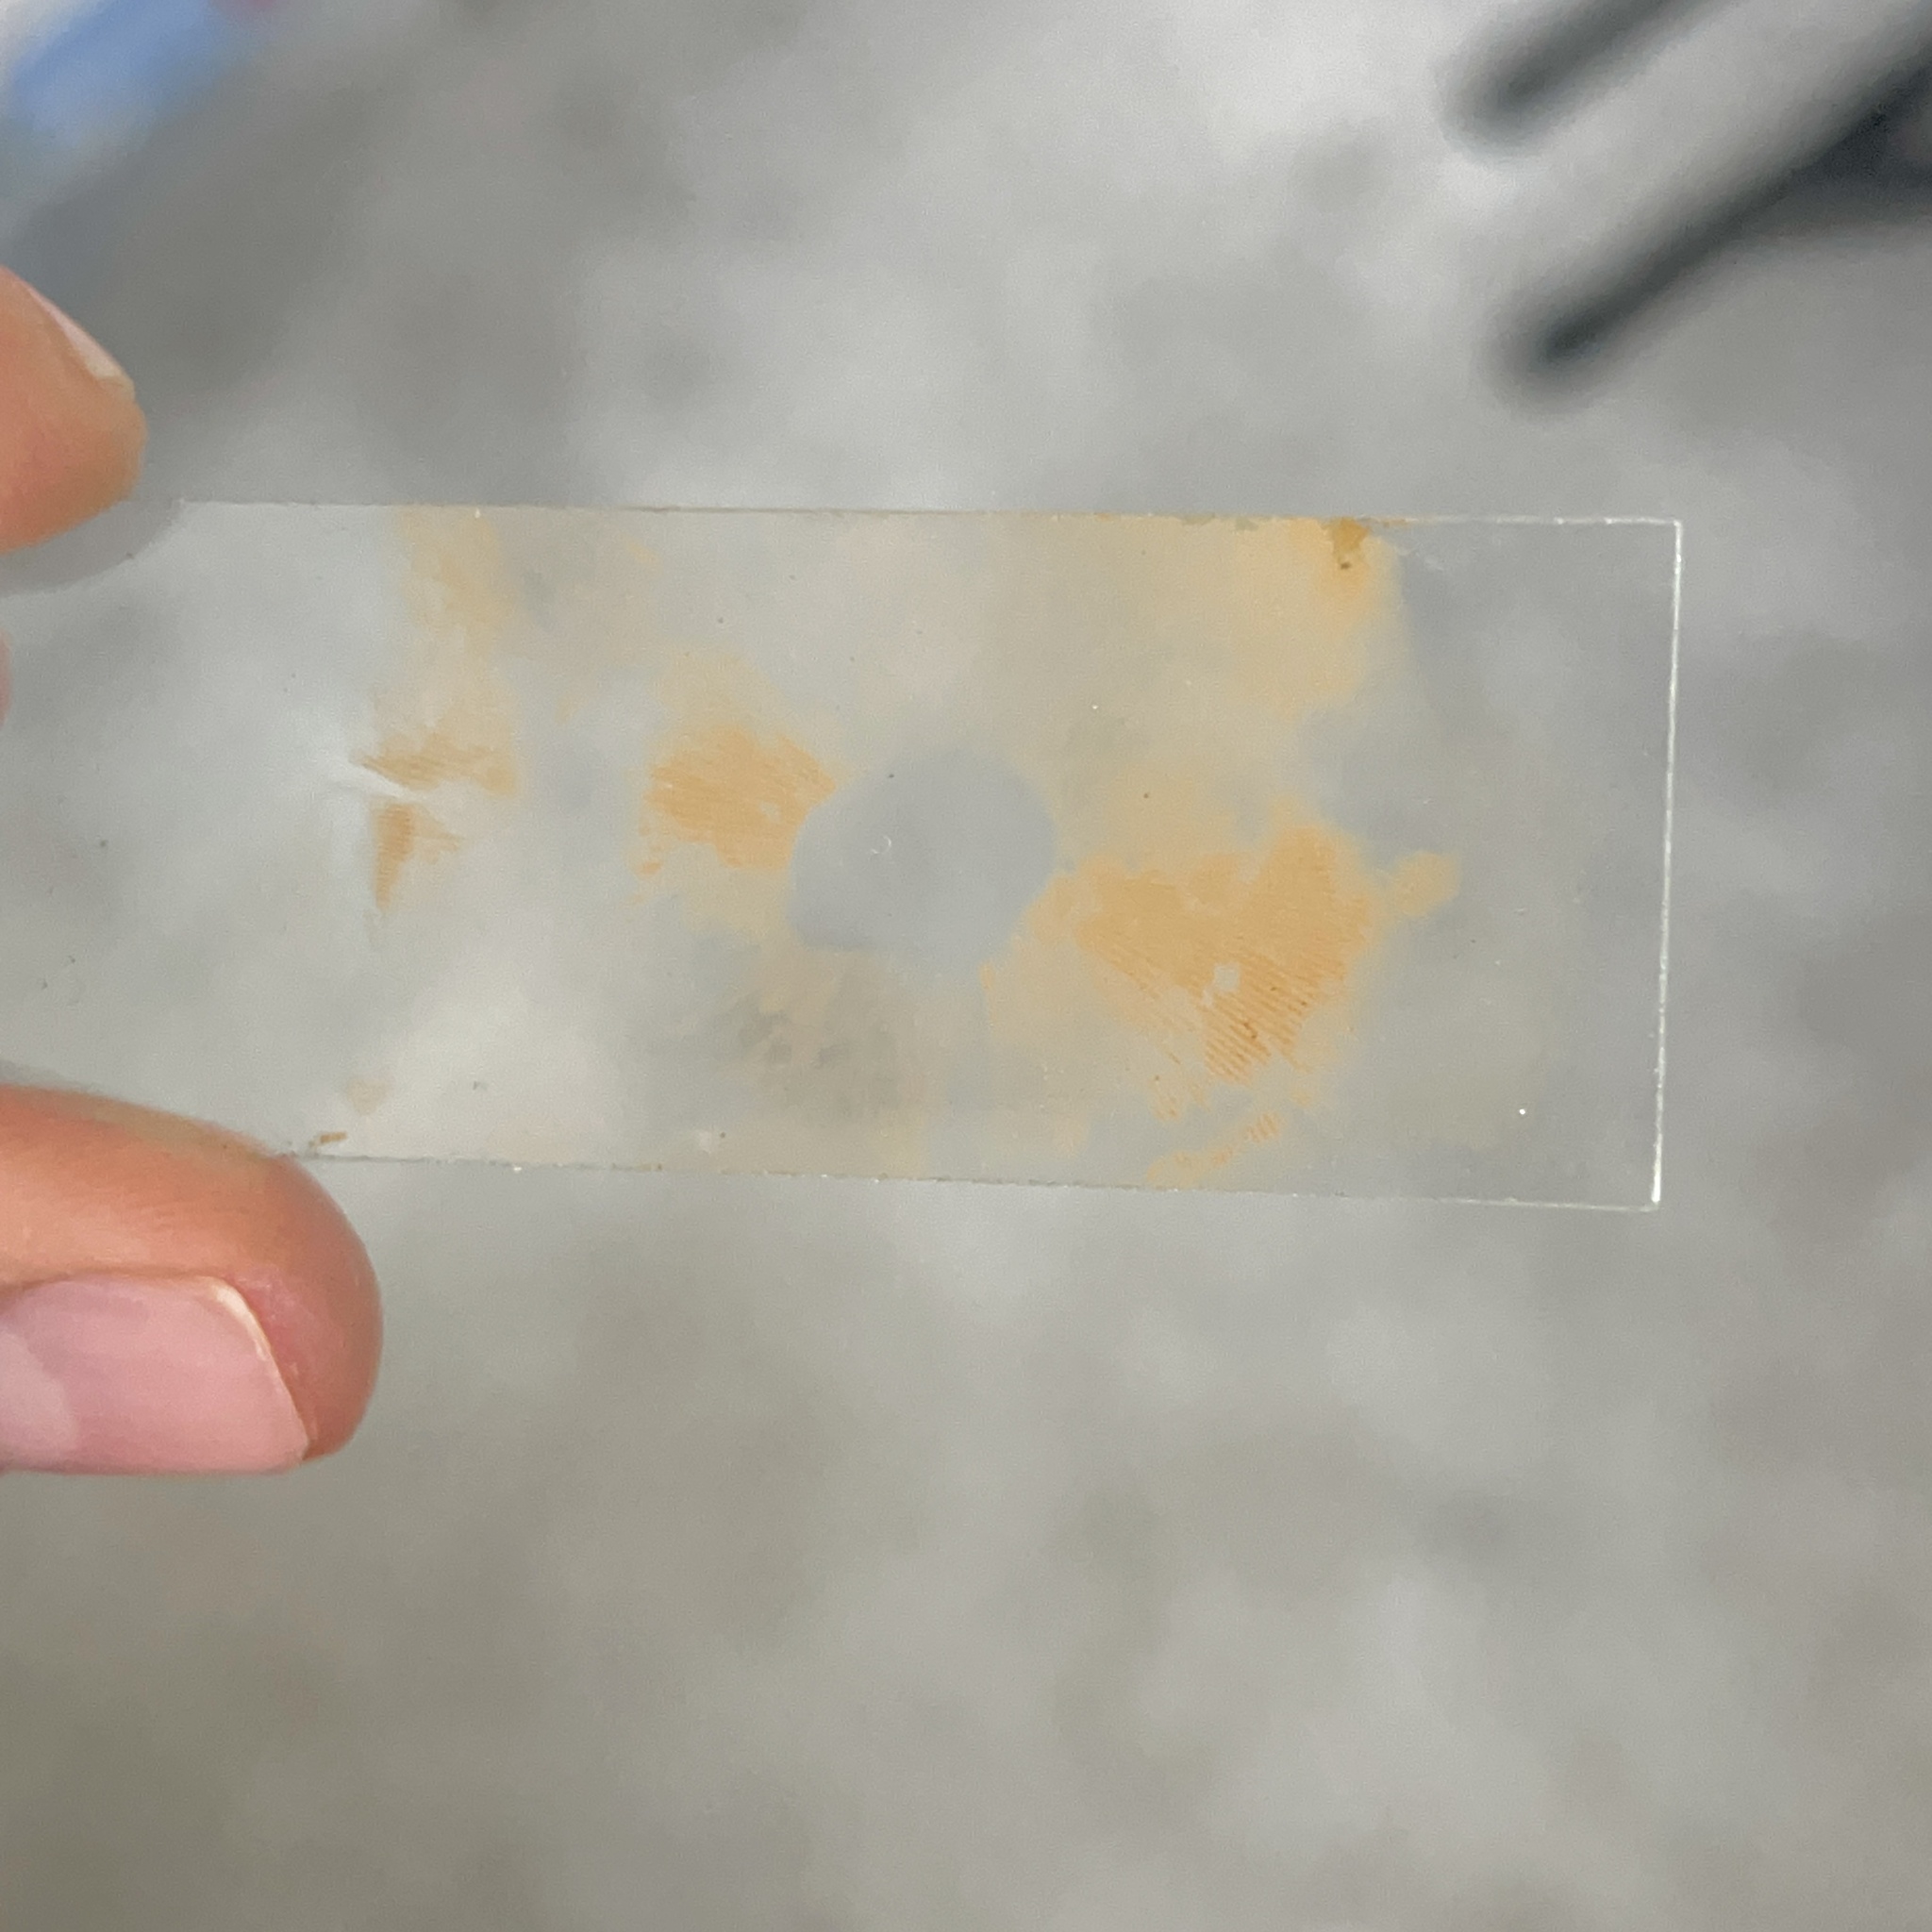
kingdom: Fungi
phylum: Basidiomycota
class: Agaricomycetes
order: Agaricales
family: Crepidotaceae
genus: Pleuroflammula
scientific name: Pleuroflammula multifolia
